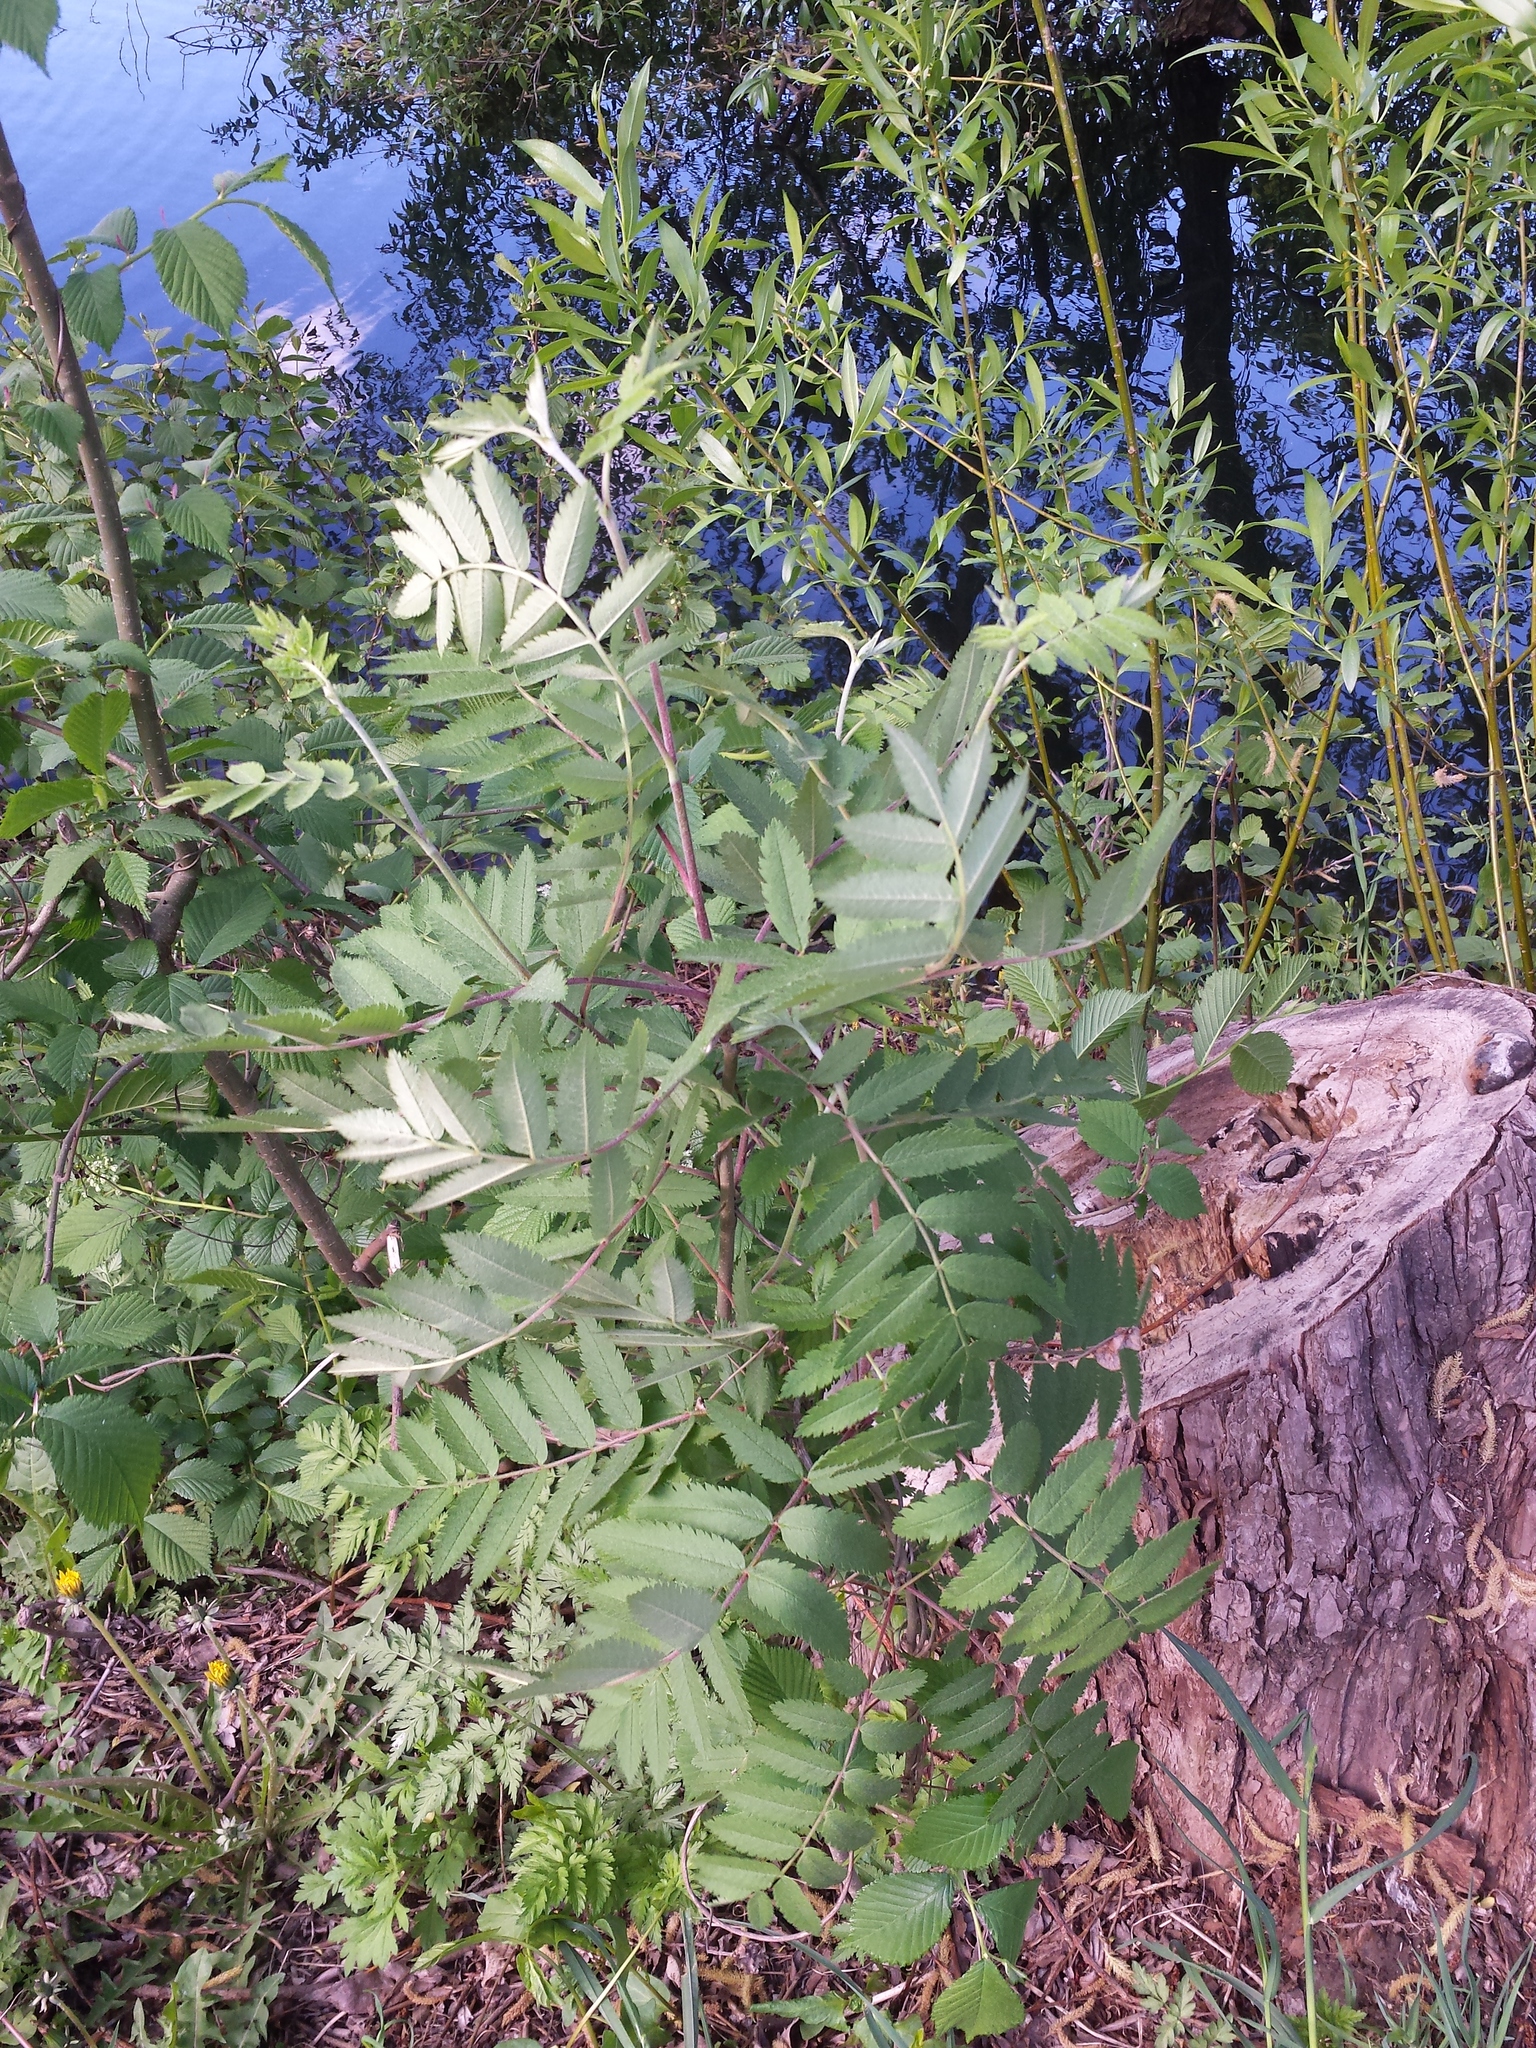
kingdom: Plantae
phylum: Tracheophyta
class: Magnoliopsida
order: Rosales
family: Rosaceae
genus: Sorbus
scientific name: Sorbus aucuparia
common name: Rowan
